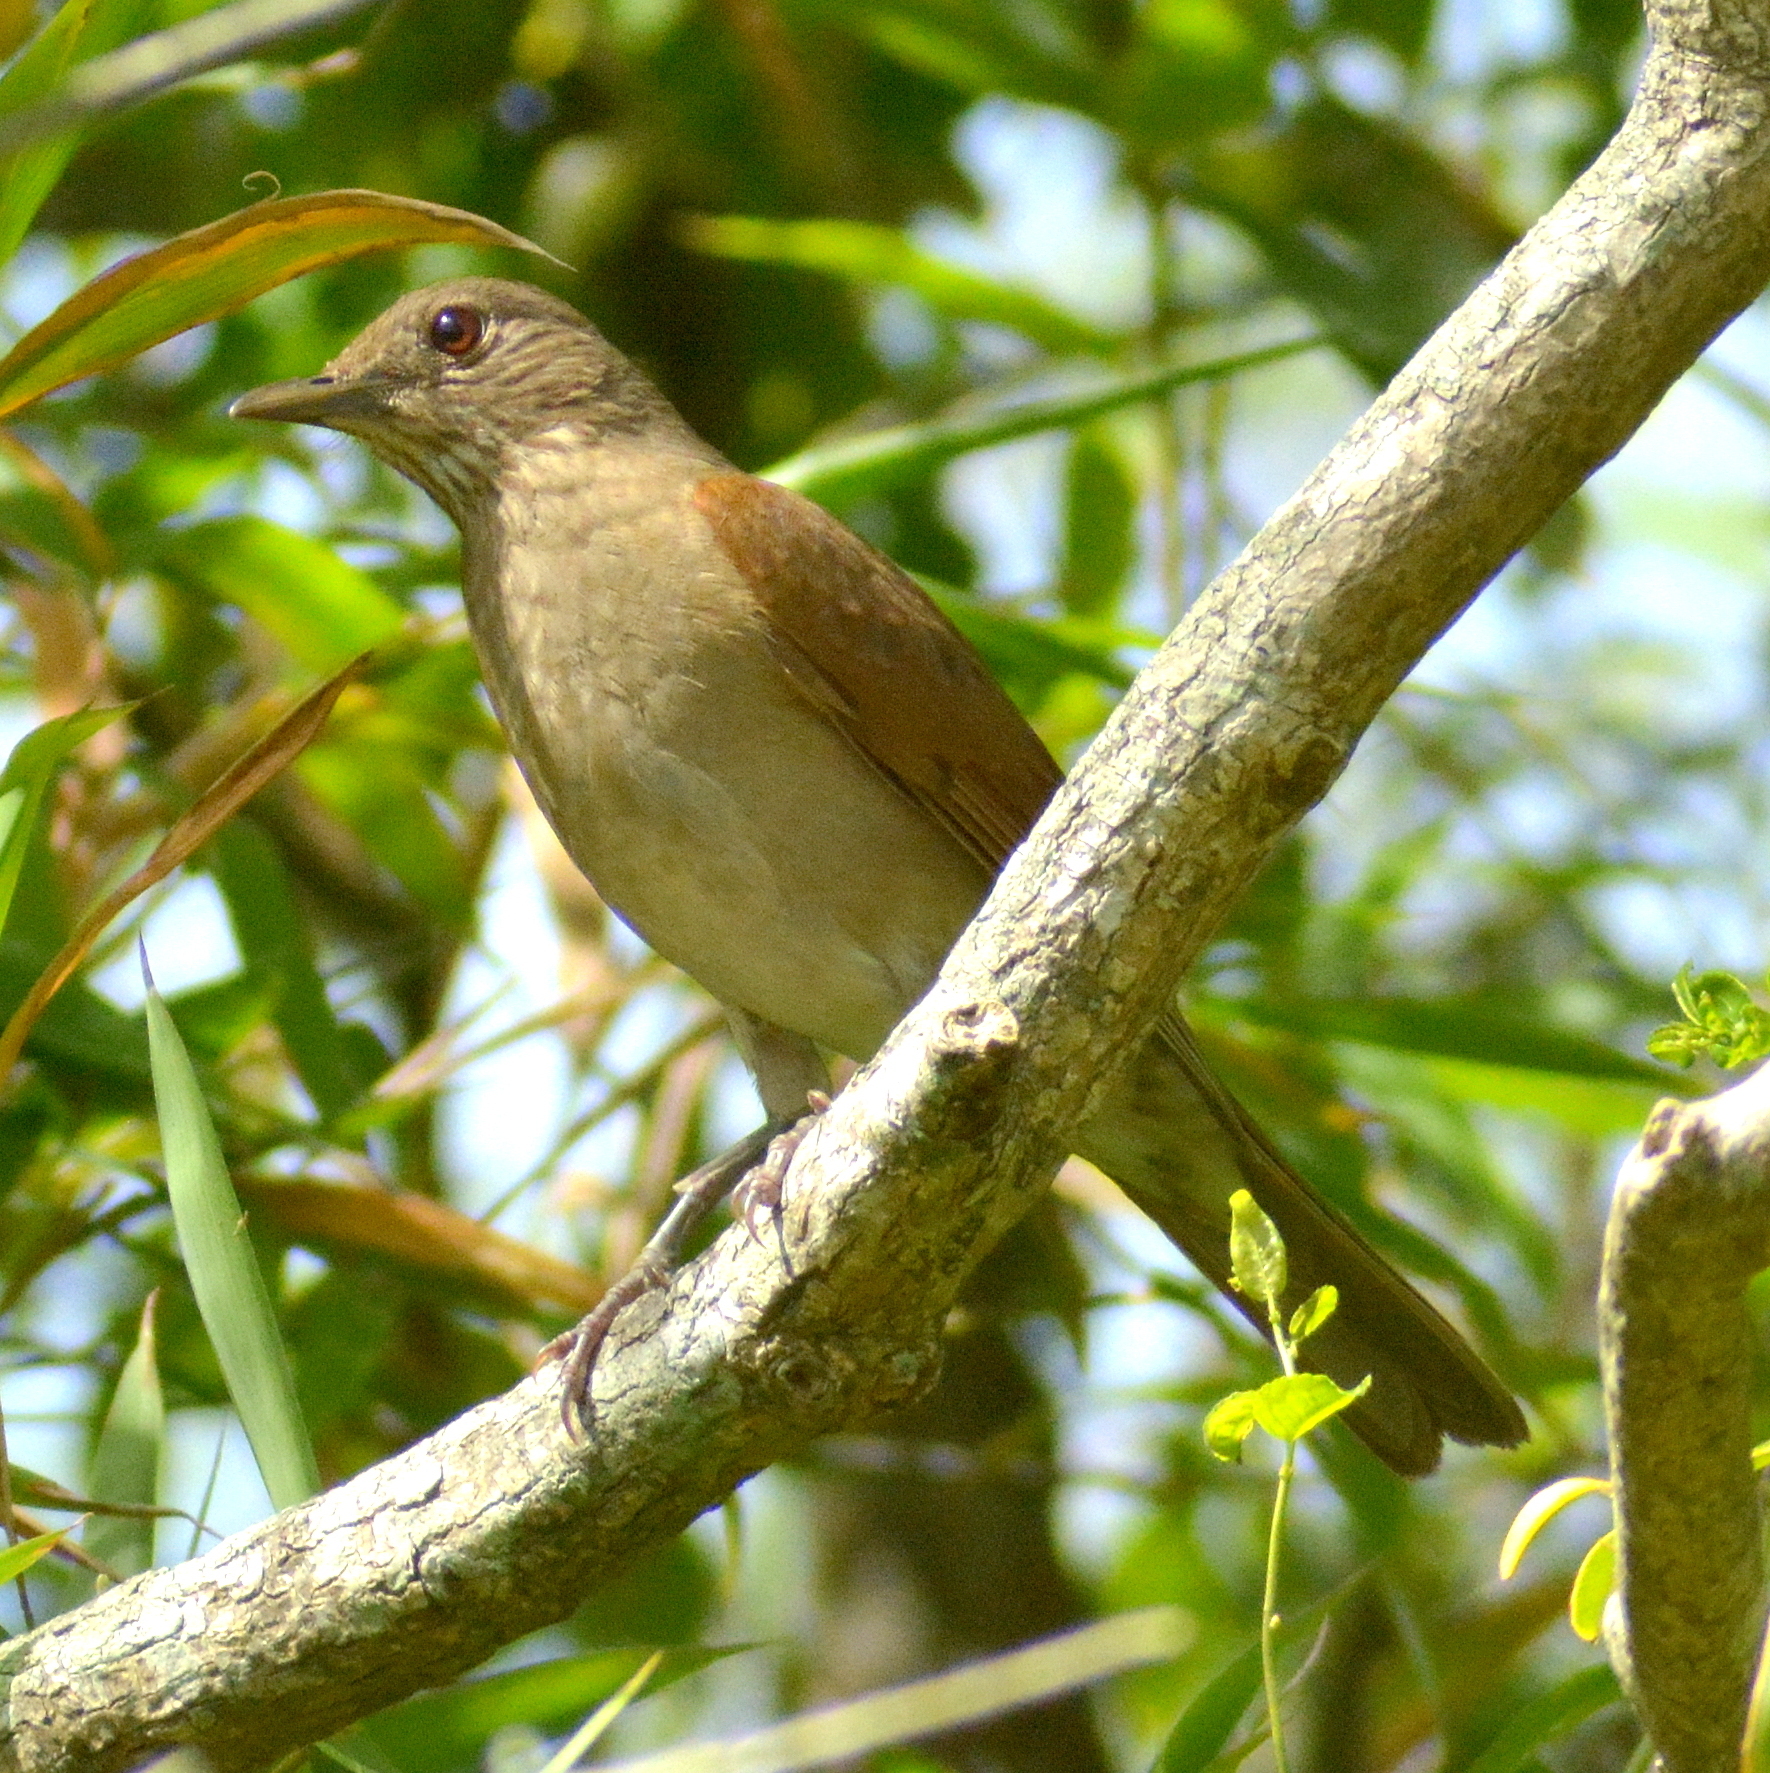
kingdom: Animalia
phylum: Chordata
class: Aves
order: Passeriformes
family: Turdidae
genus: Turdus
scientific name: Turdus leucomelas
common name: Pale-breasted thrush
